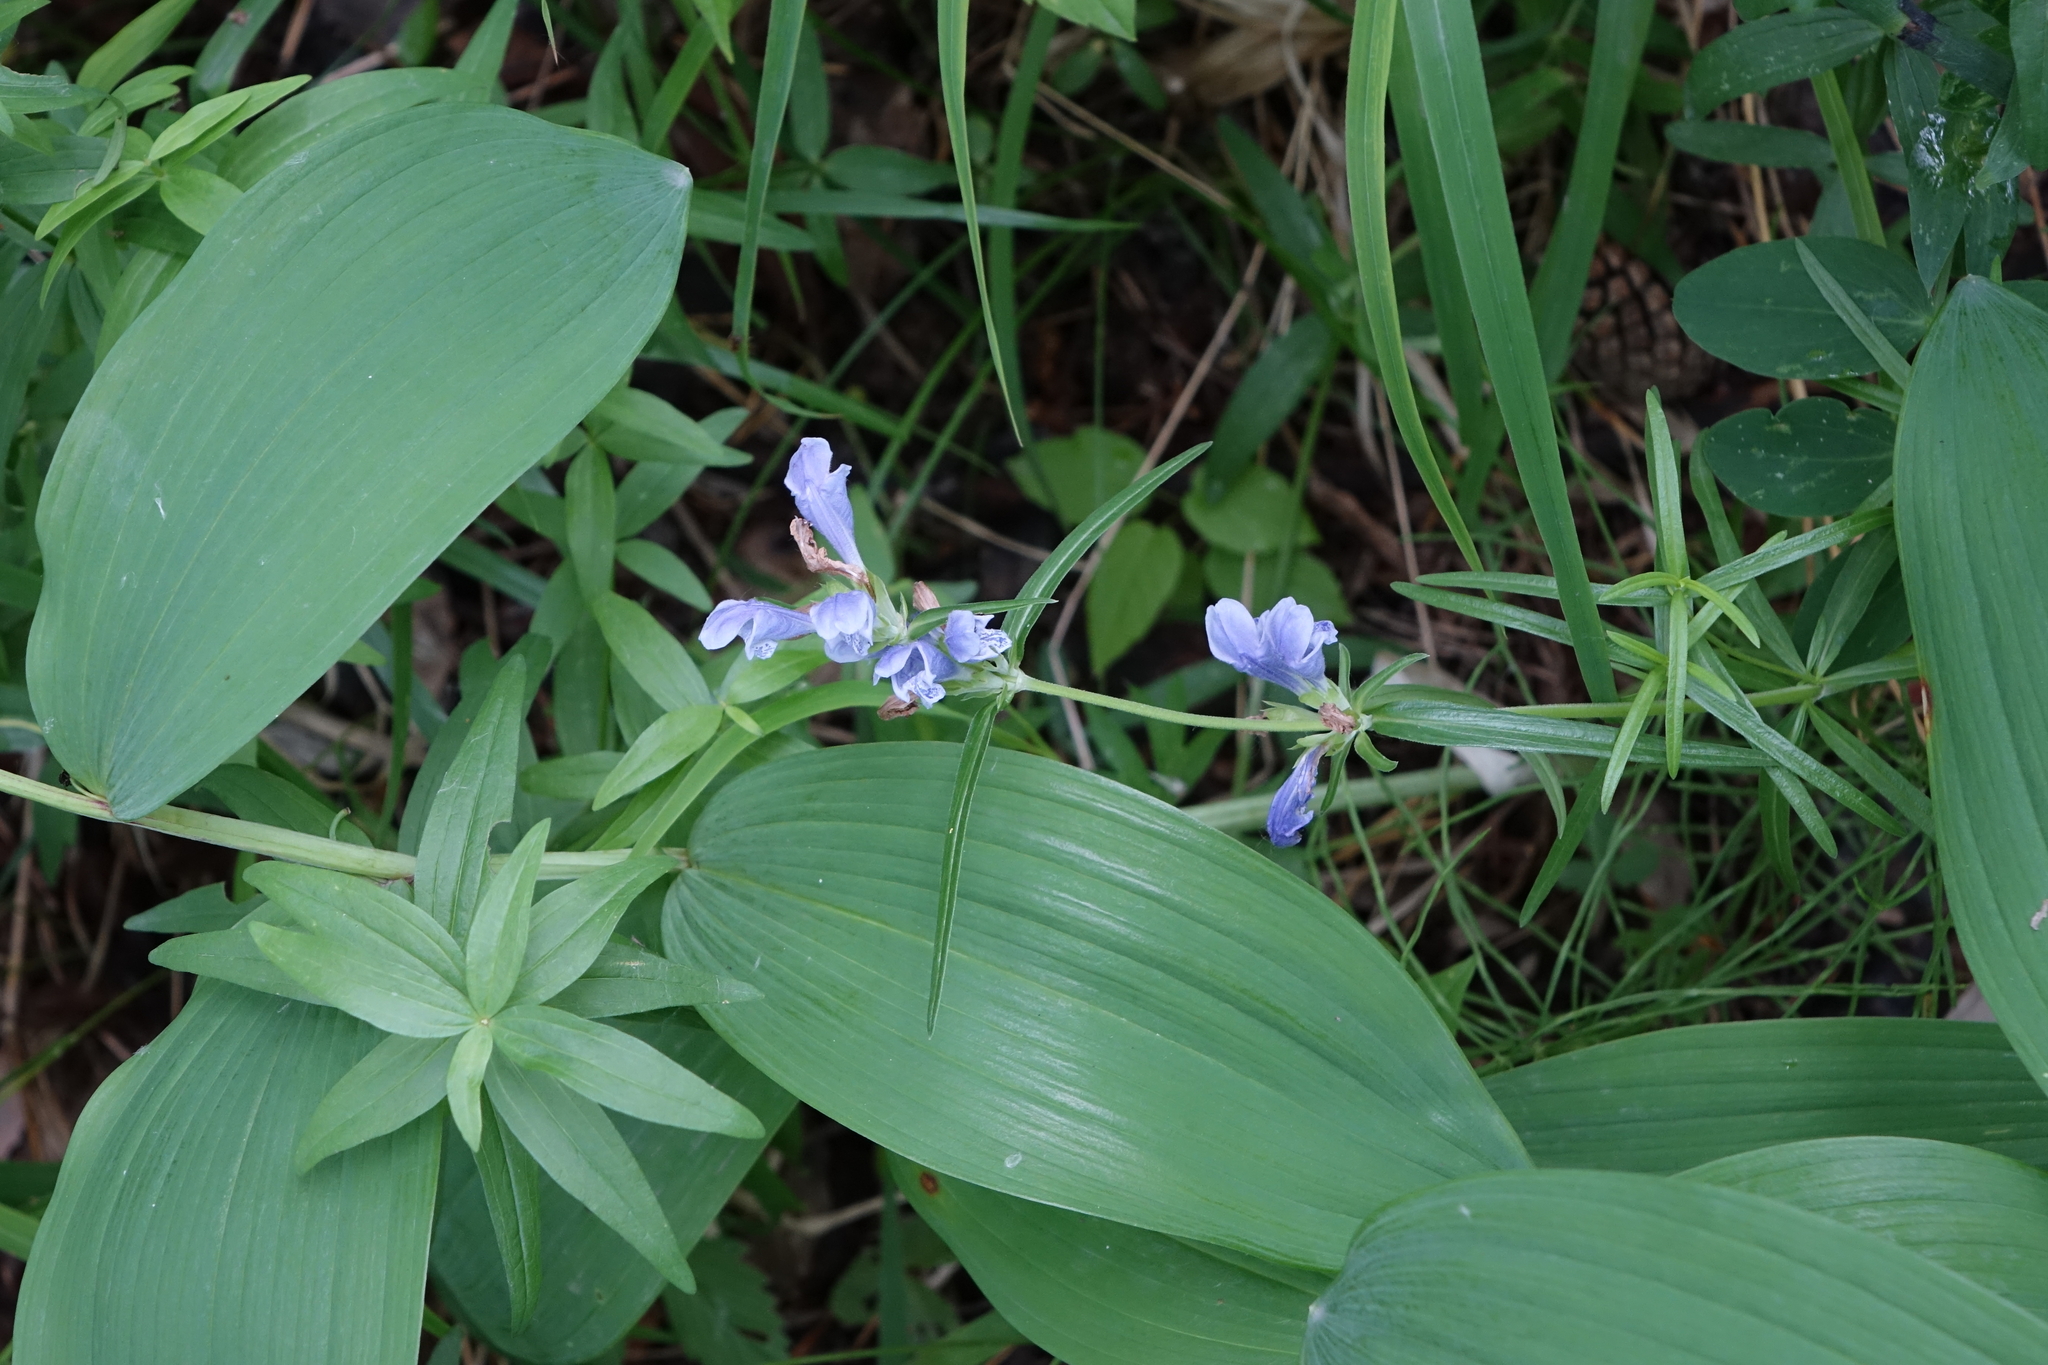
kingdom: Plantae
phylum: Tracheophyta
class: Magnoliopsida
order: Lamiales
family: Lamiaceae
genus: Dracocephalum
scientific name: Dracocephalum ruyschiana
